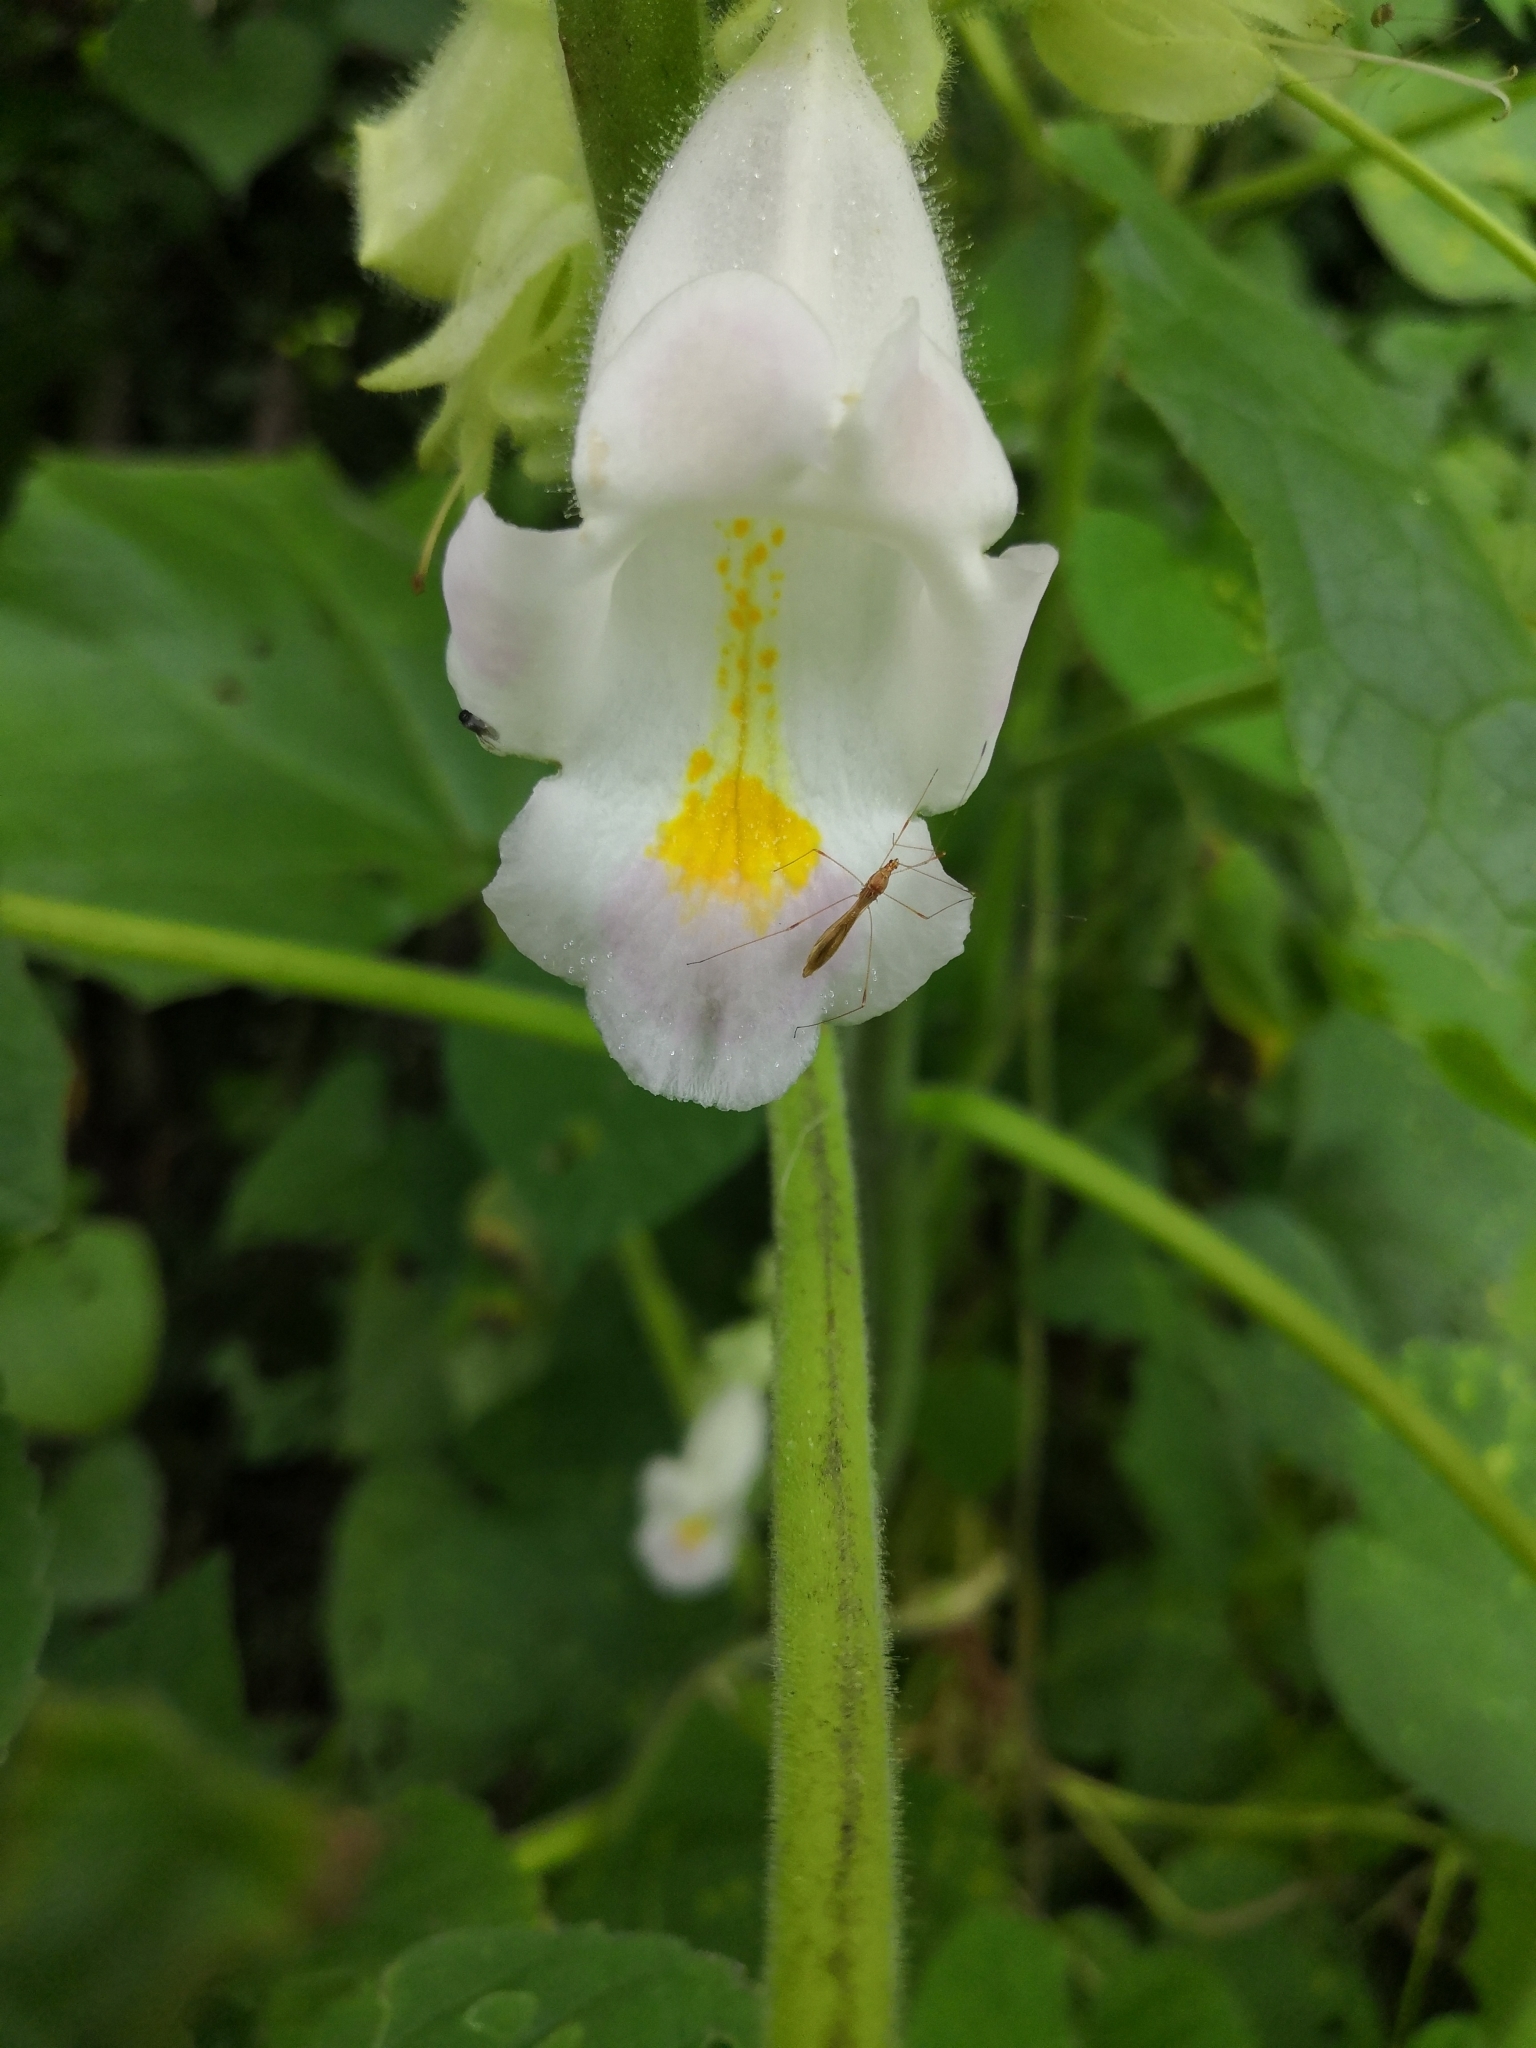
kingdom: Plantae
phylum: Tracheophyta
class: Magnoliopsida
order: Lamiales
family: Martyniaceae
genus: Martynia
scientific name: Martynia annua
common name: Tiger's-claw
